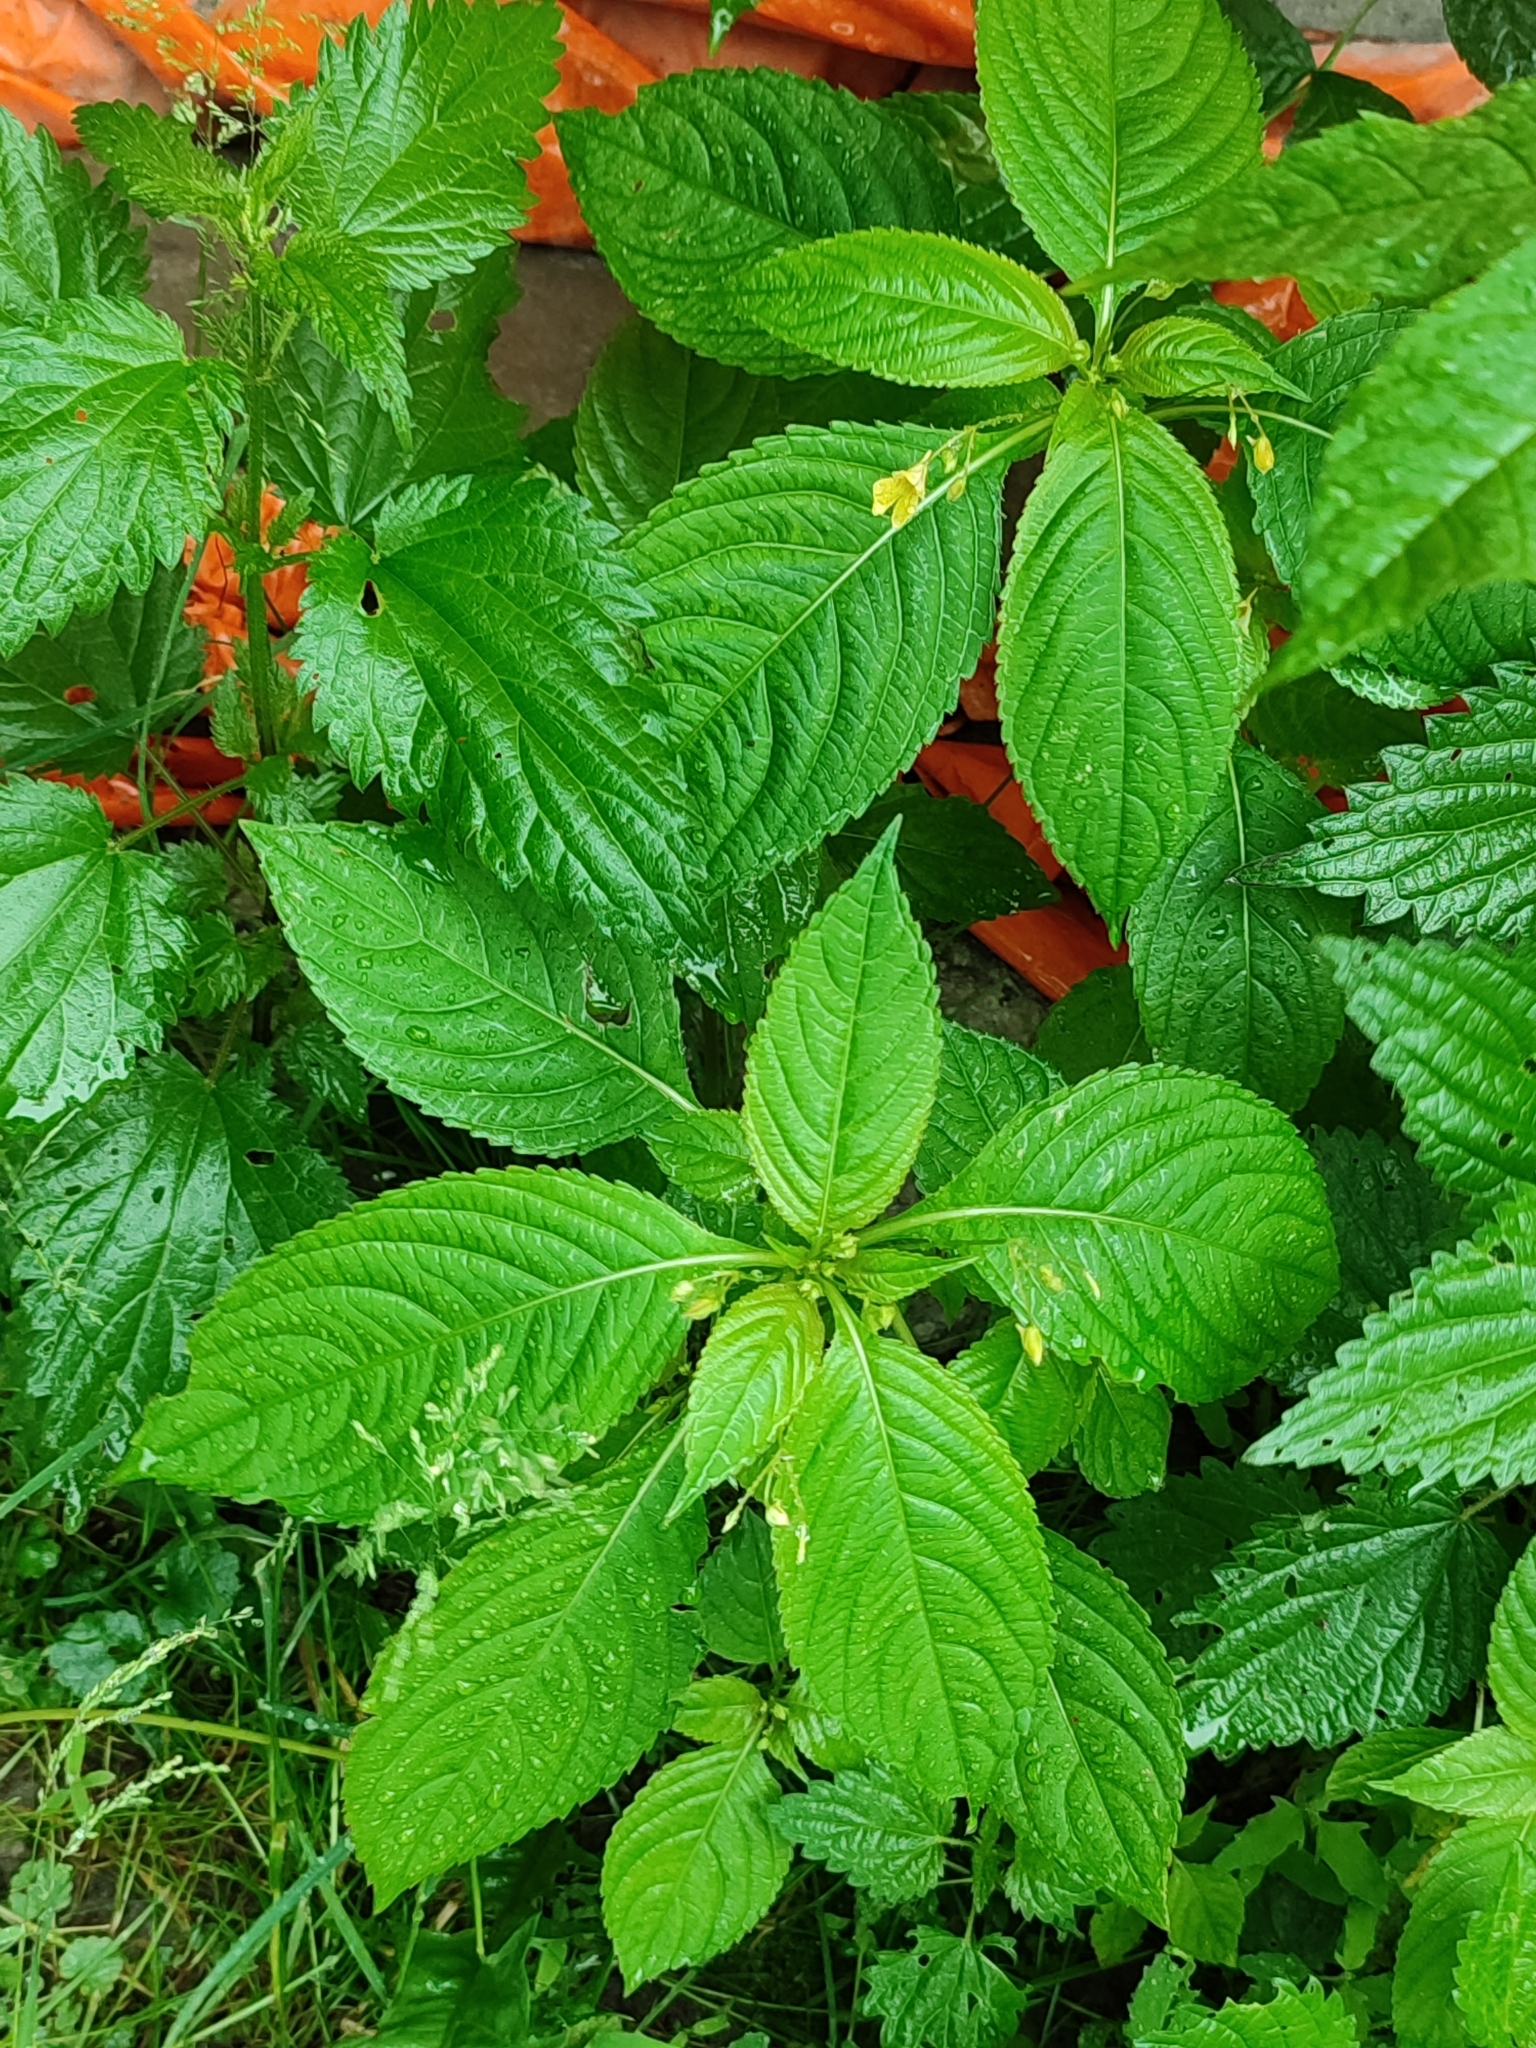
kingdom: Plantae
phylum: Tracheophyta
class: Magnoliopsida
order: Ericales
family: Balsaminaceae
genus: Impatiens
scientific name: Impatiens parviflora
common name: Small balsam
